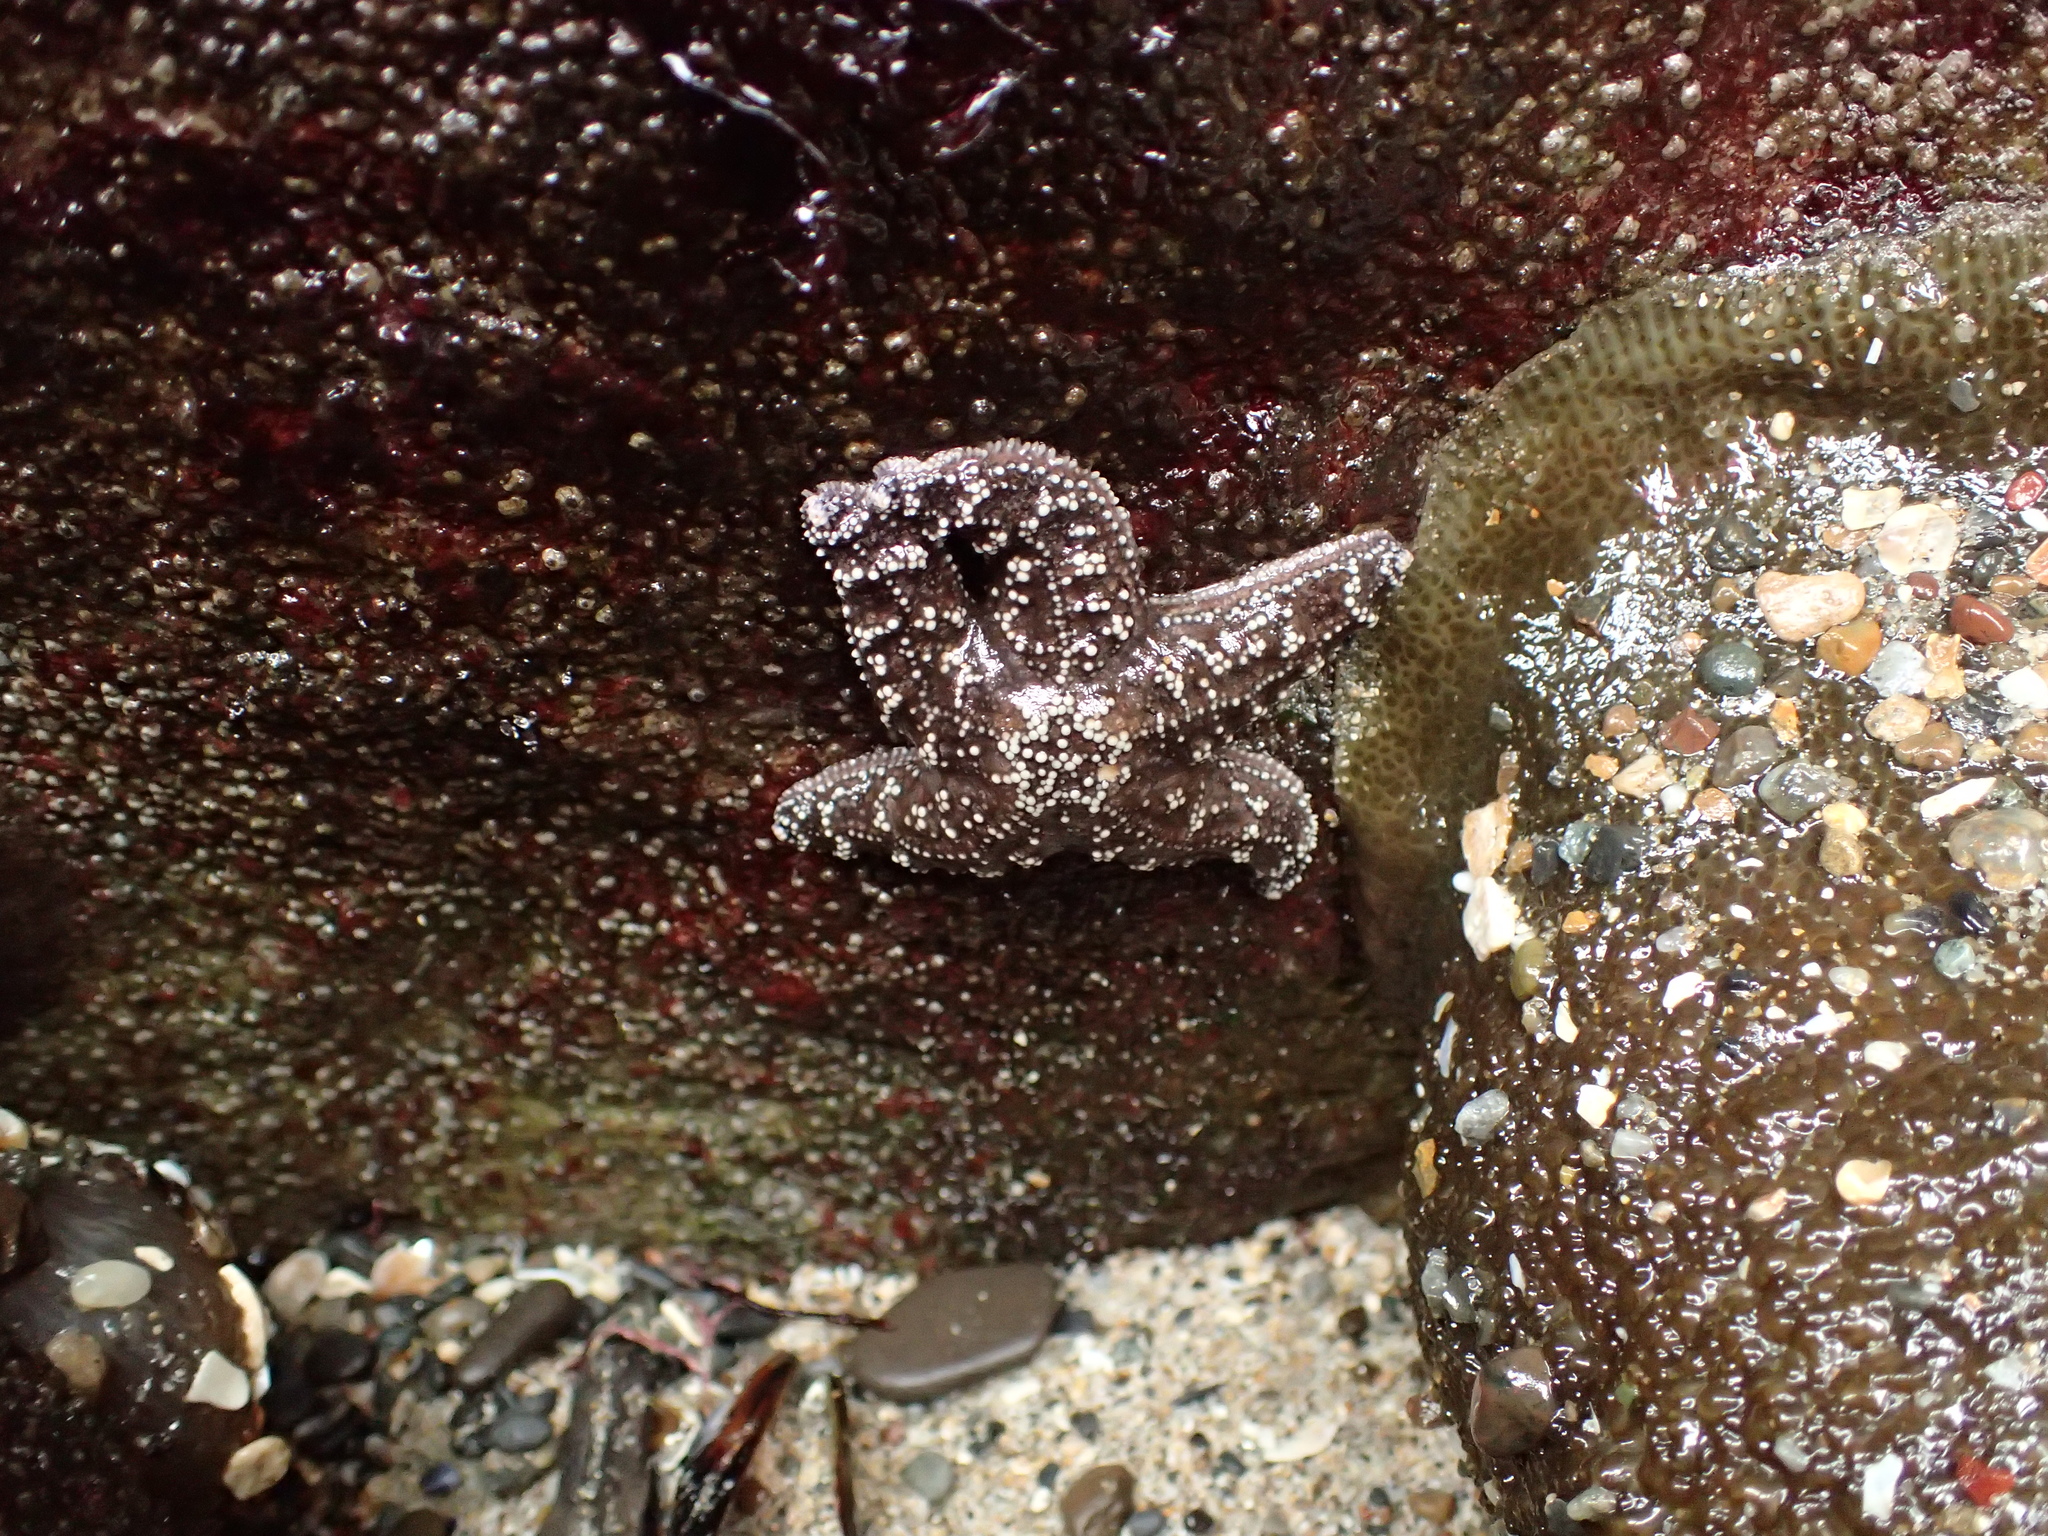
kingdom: Animalia
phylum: Echinodermata
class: Asteroidea
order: Forcipulatida
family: Asteriidae
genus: Pisaster
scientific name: Pisaster ochraceus
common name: Ochre stars
